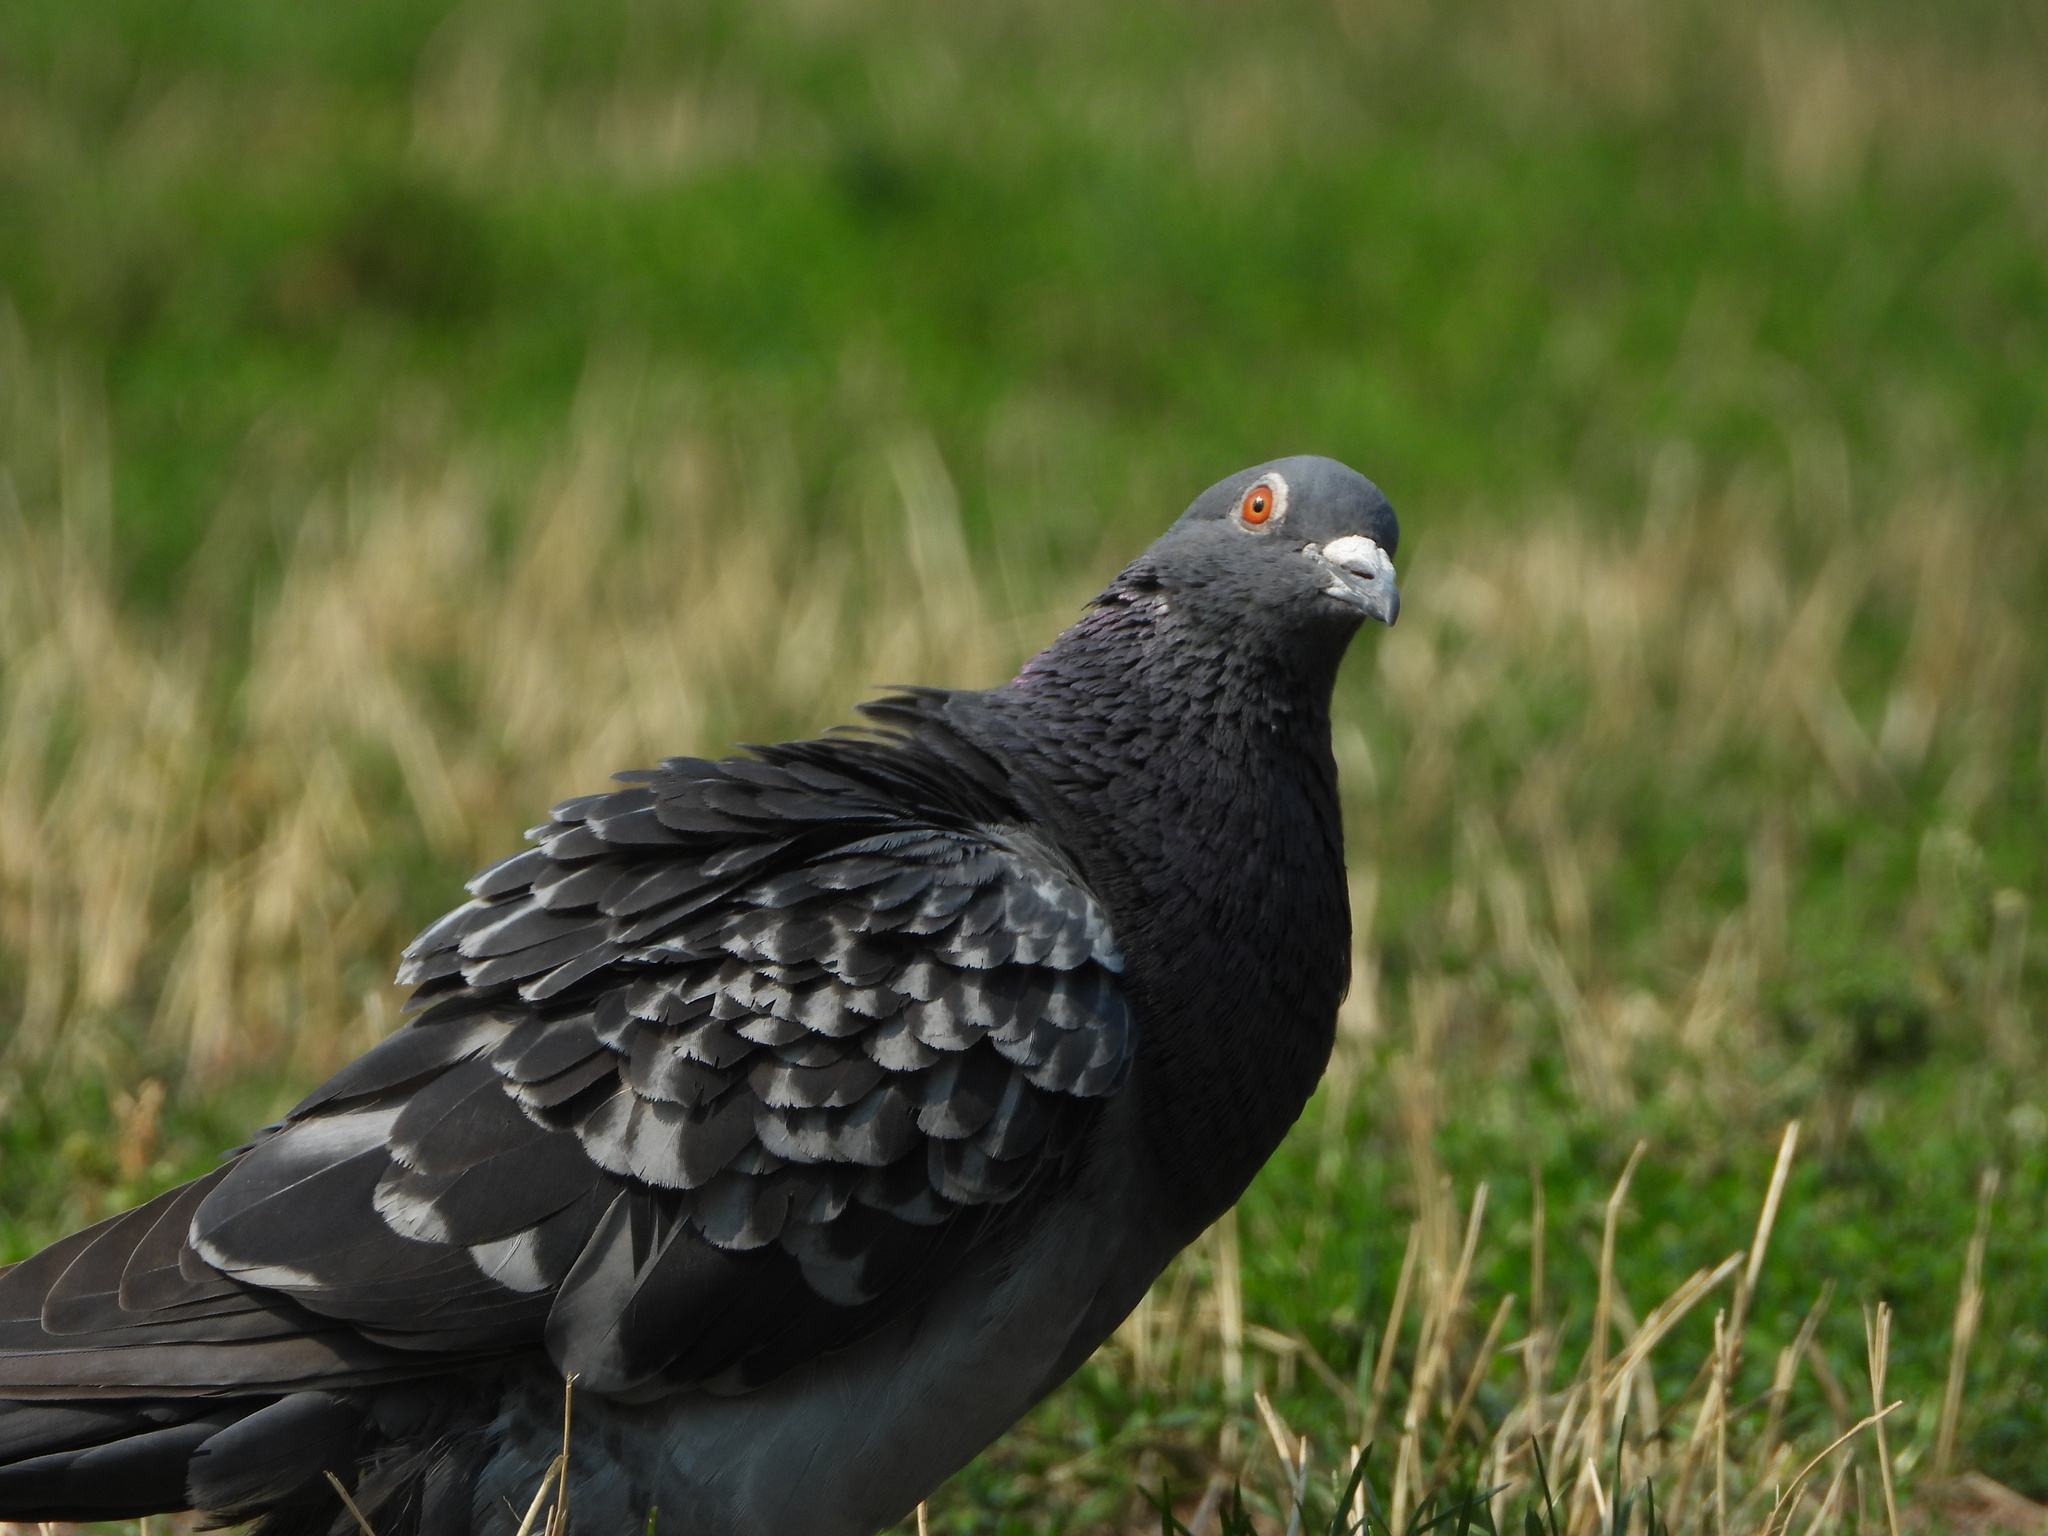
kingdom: Animalia
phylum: Chordata
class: Aves
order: Columbiformes
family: Columbidae
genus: Columba
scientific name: Columba livia
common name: Rock pigeon
